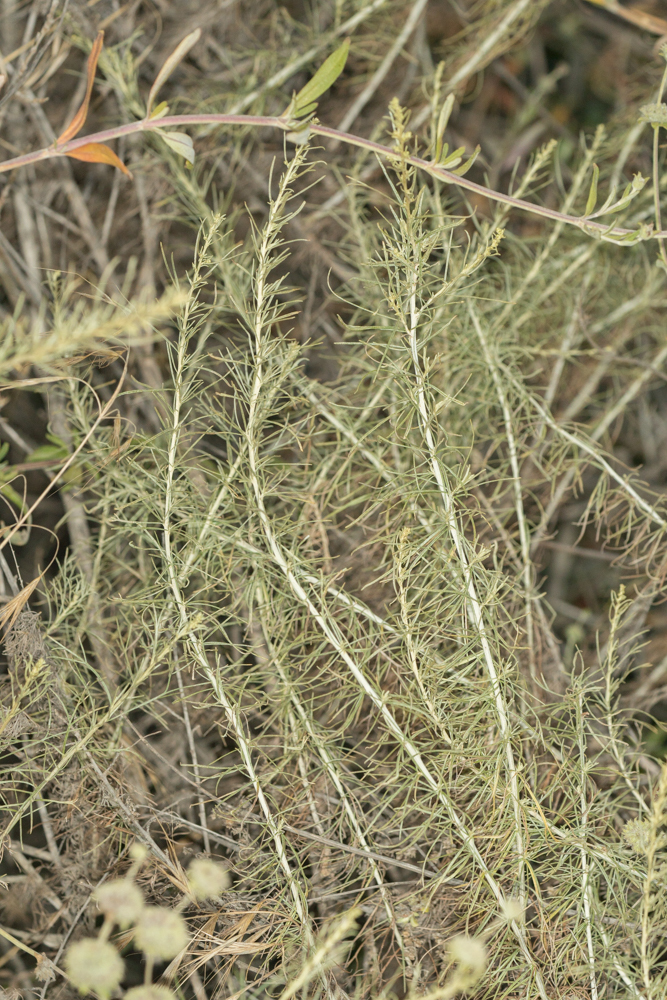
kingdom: Plantae
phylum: Tracheophyta
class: Magnoliopsida
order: Asterales
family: Asteraceae
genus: Artemisia
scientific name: Artemisia californica
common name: California sagebrush
